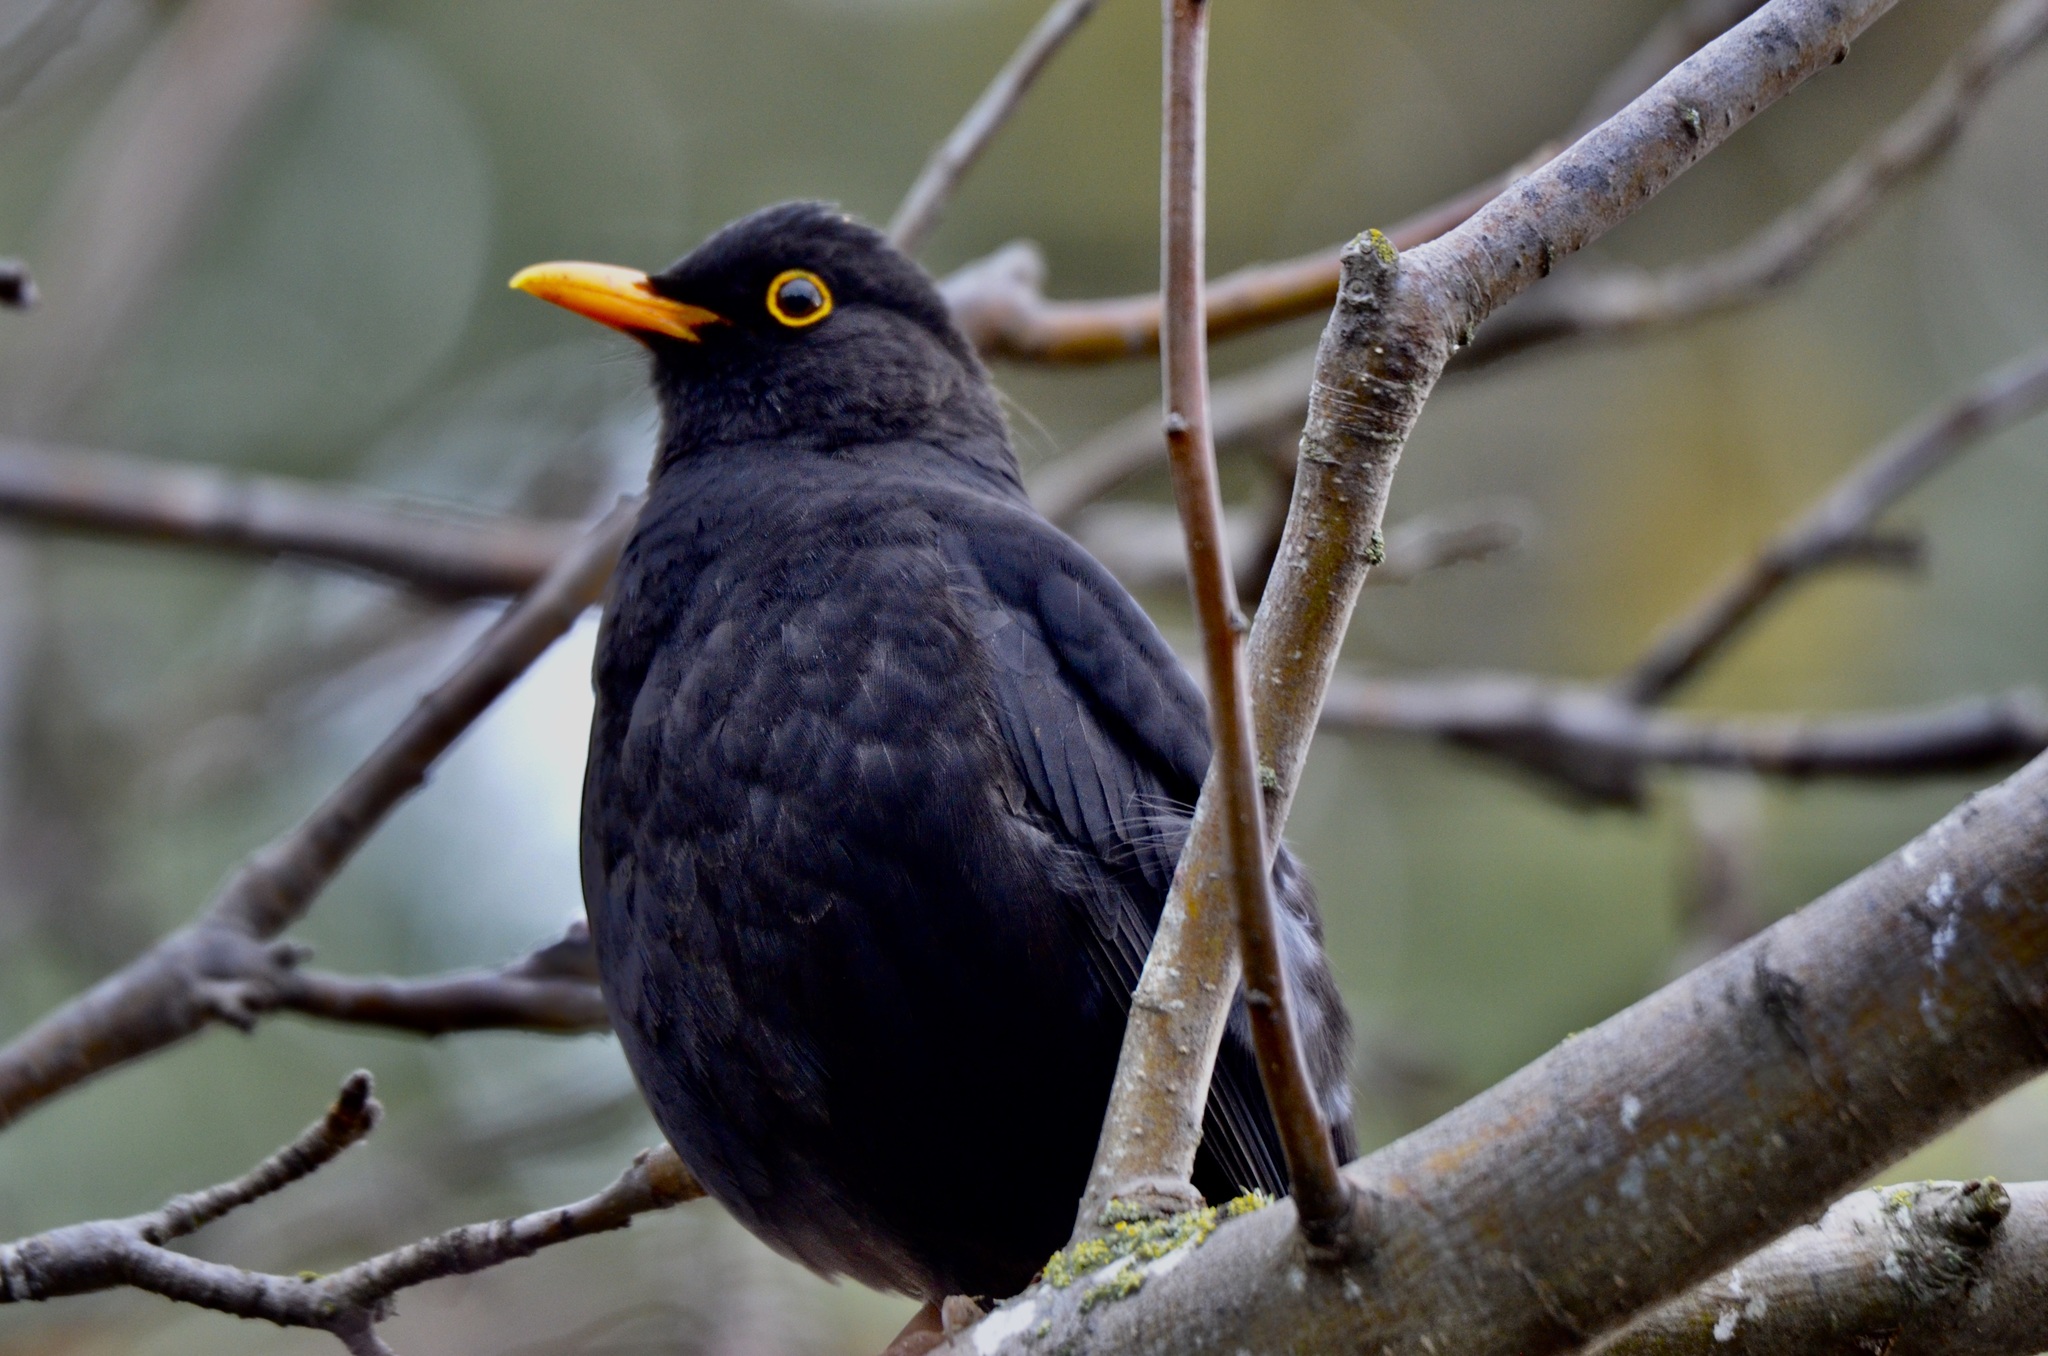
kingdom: Animalia
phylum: Chordata
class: Aves
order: Passeriformes
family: Turdidae
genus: Turdus
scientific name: Turdus merula
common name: Common blackbird
